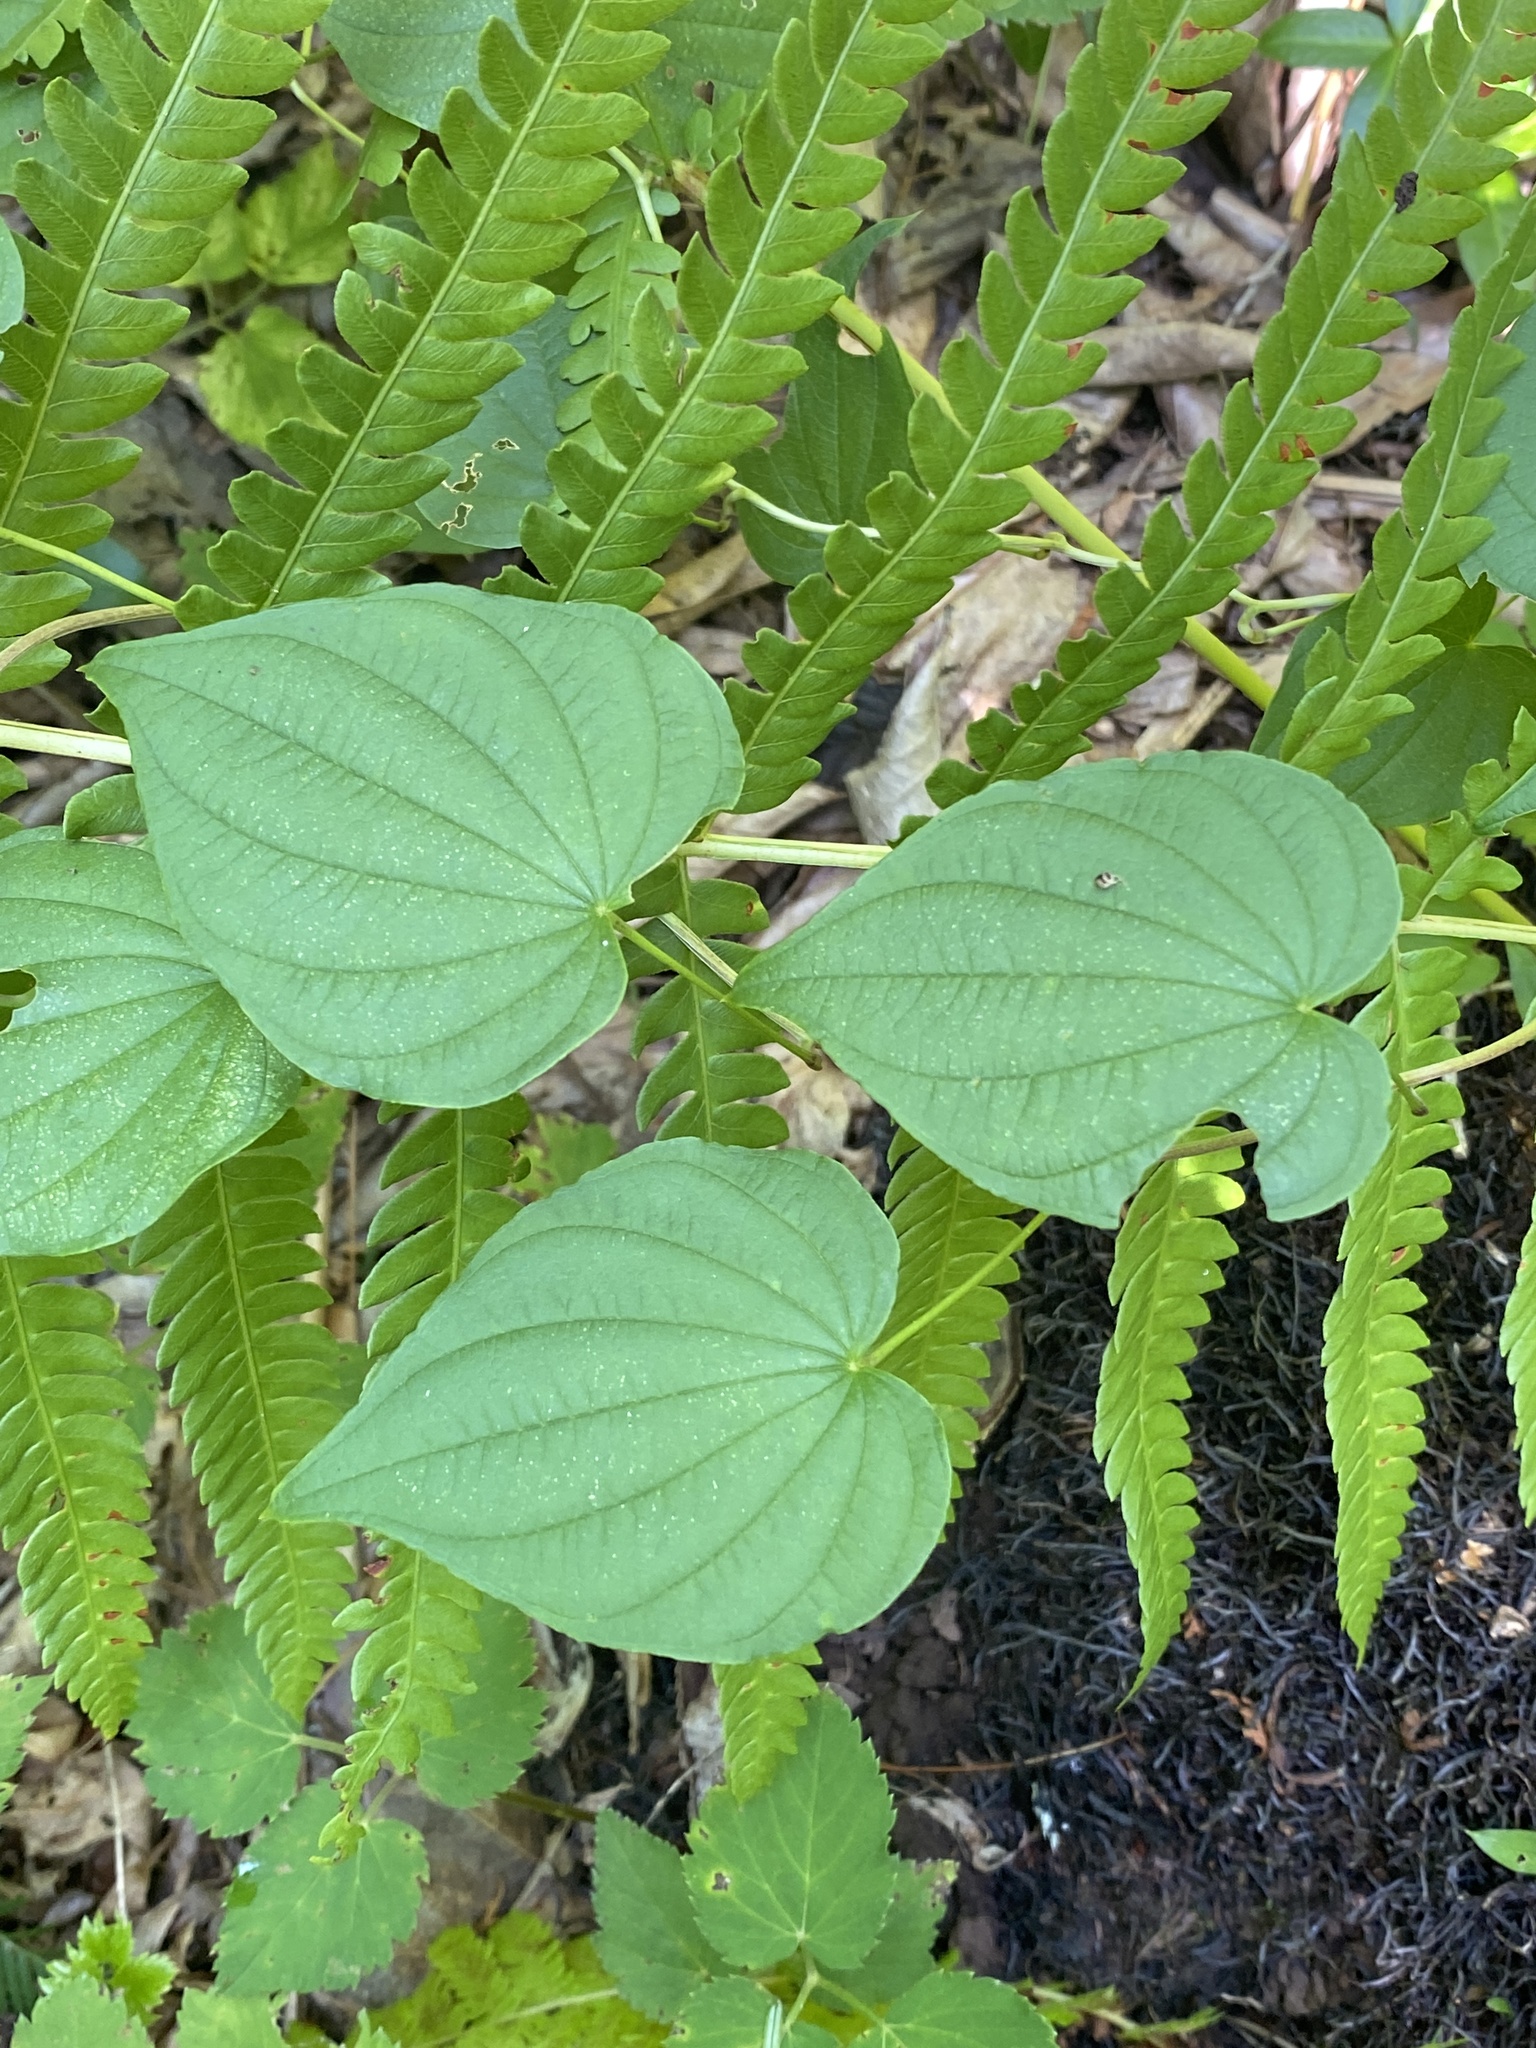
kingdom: Plantae
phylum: Tracheophyta
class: Liliopsida
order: Dioscoreales
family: Dioscoreaceae
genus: Dioscorea
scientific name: Dioscorea villosa
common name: Wild yam
